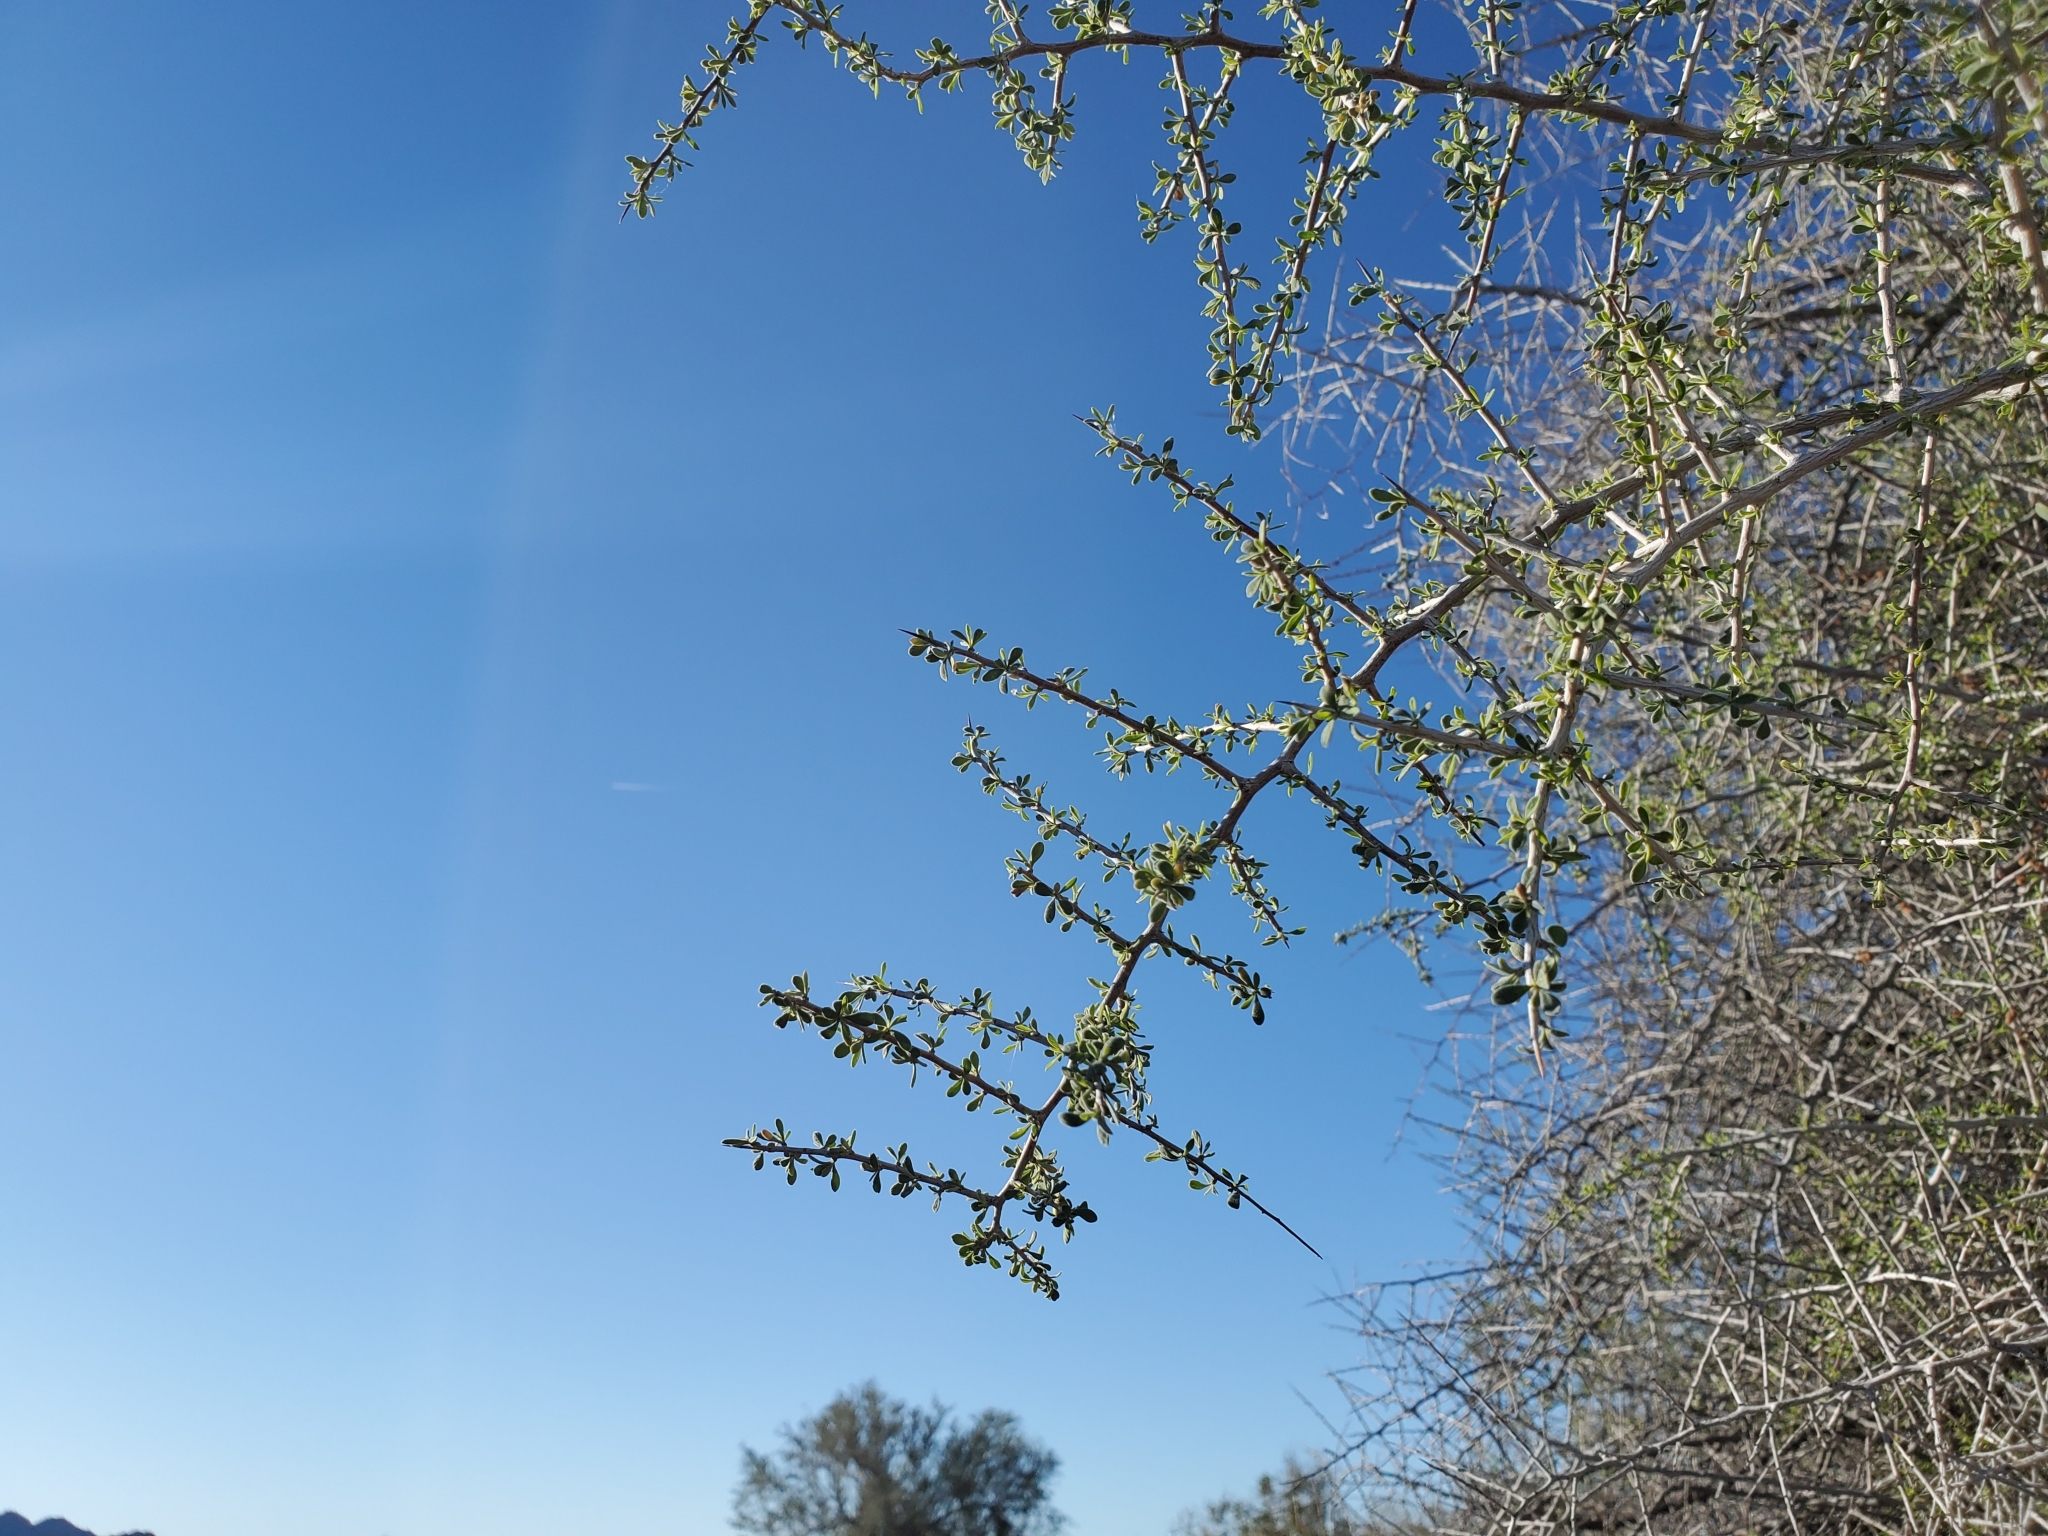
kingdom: Plantae
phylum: Tracheophyta
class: Magnoliopsida
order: Rosales
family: Rhamnaceae
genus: Condalia
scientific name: Condalia globosa
